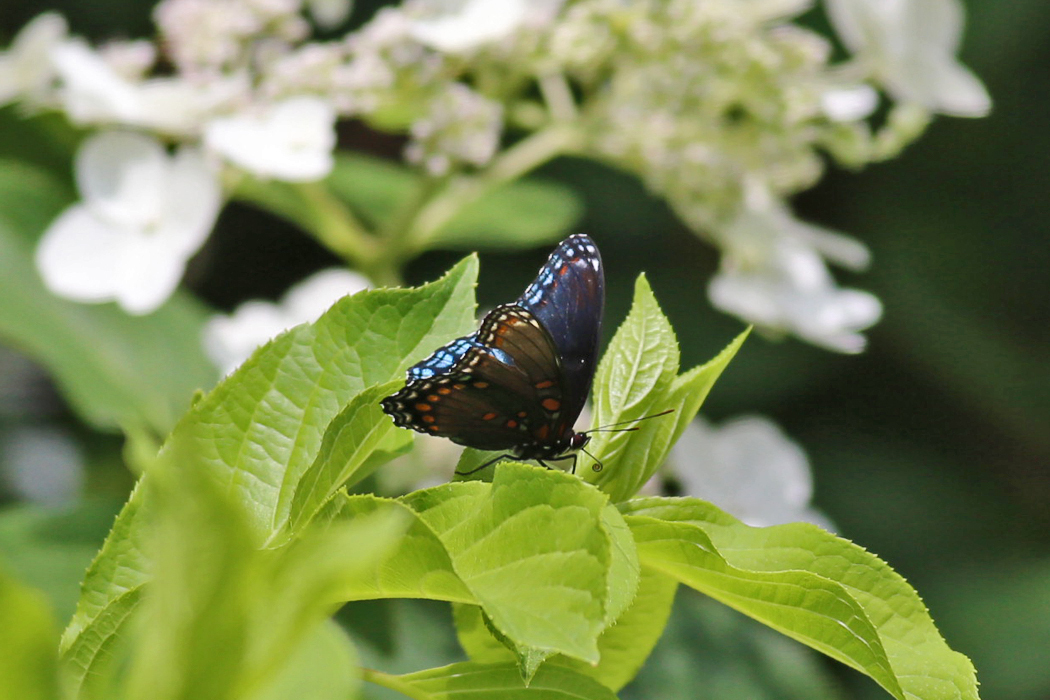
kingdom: Animalia
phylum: Arthropoda
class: Insecta
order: Lepidoptera
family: Nymphalidae
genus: Limenitis
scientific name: Limenitis astyanax
